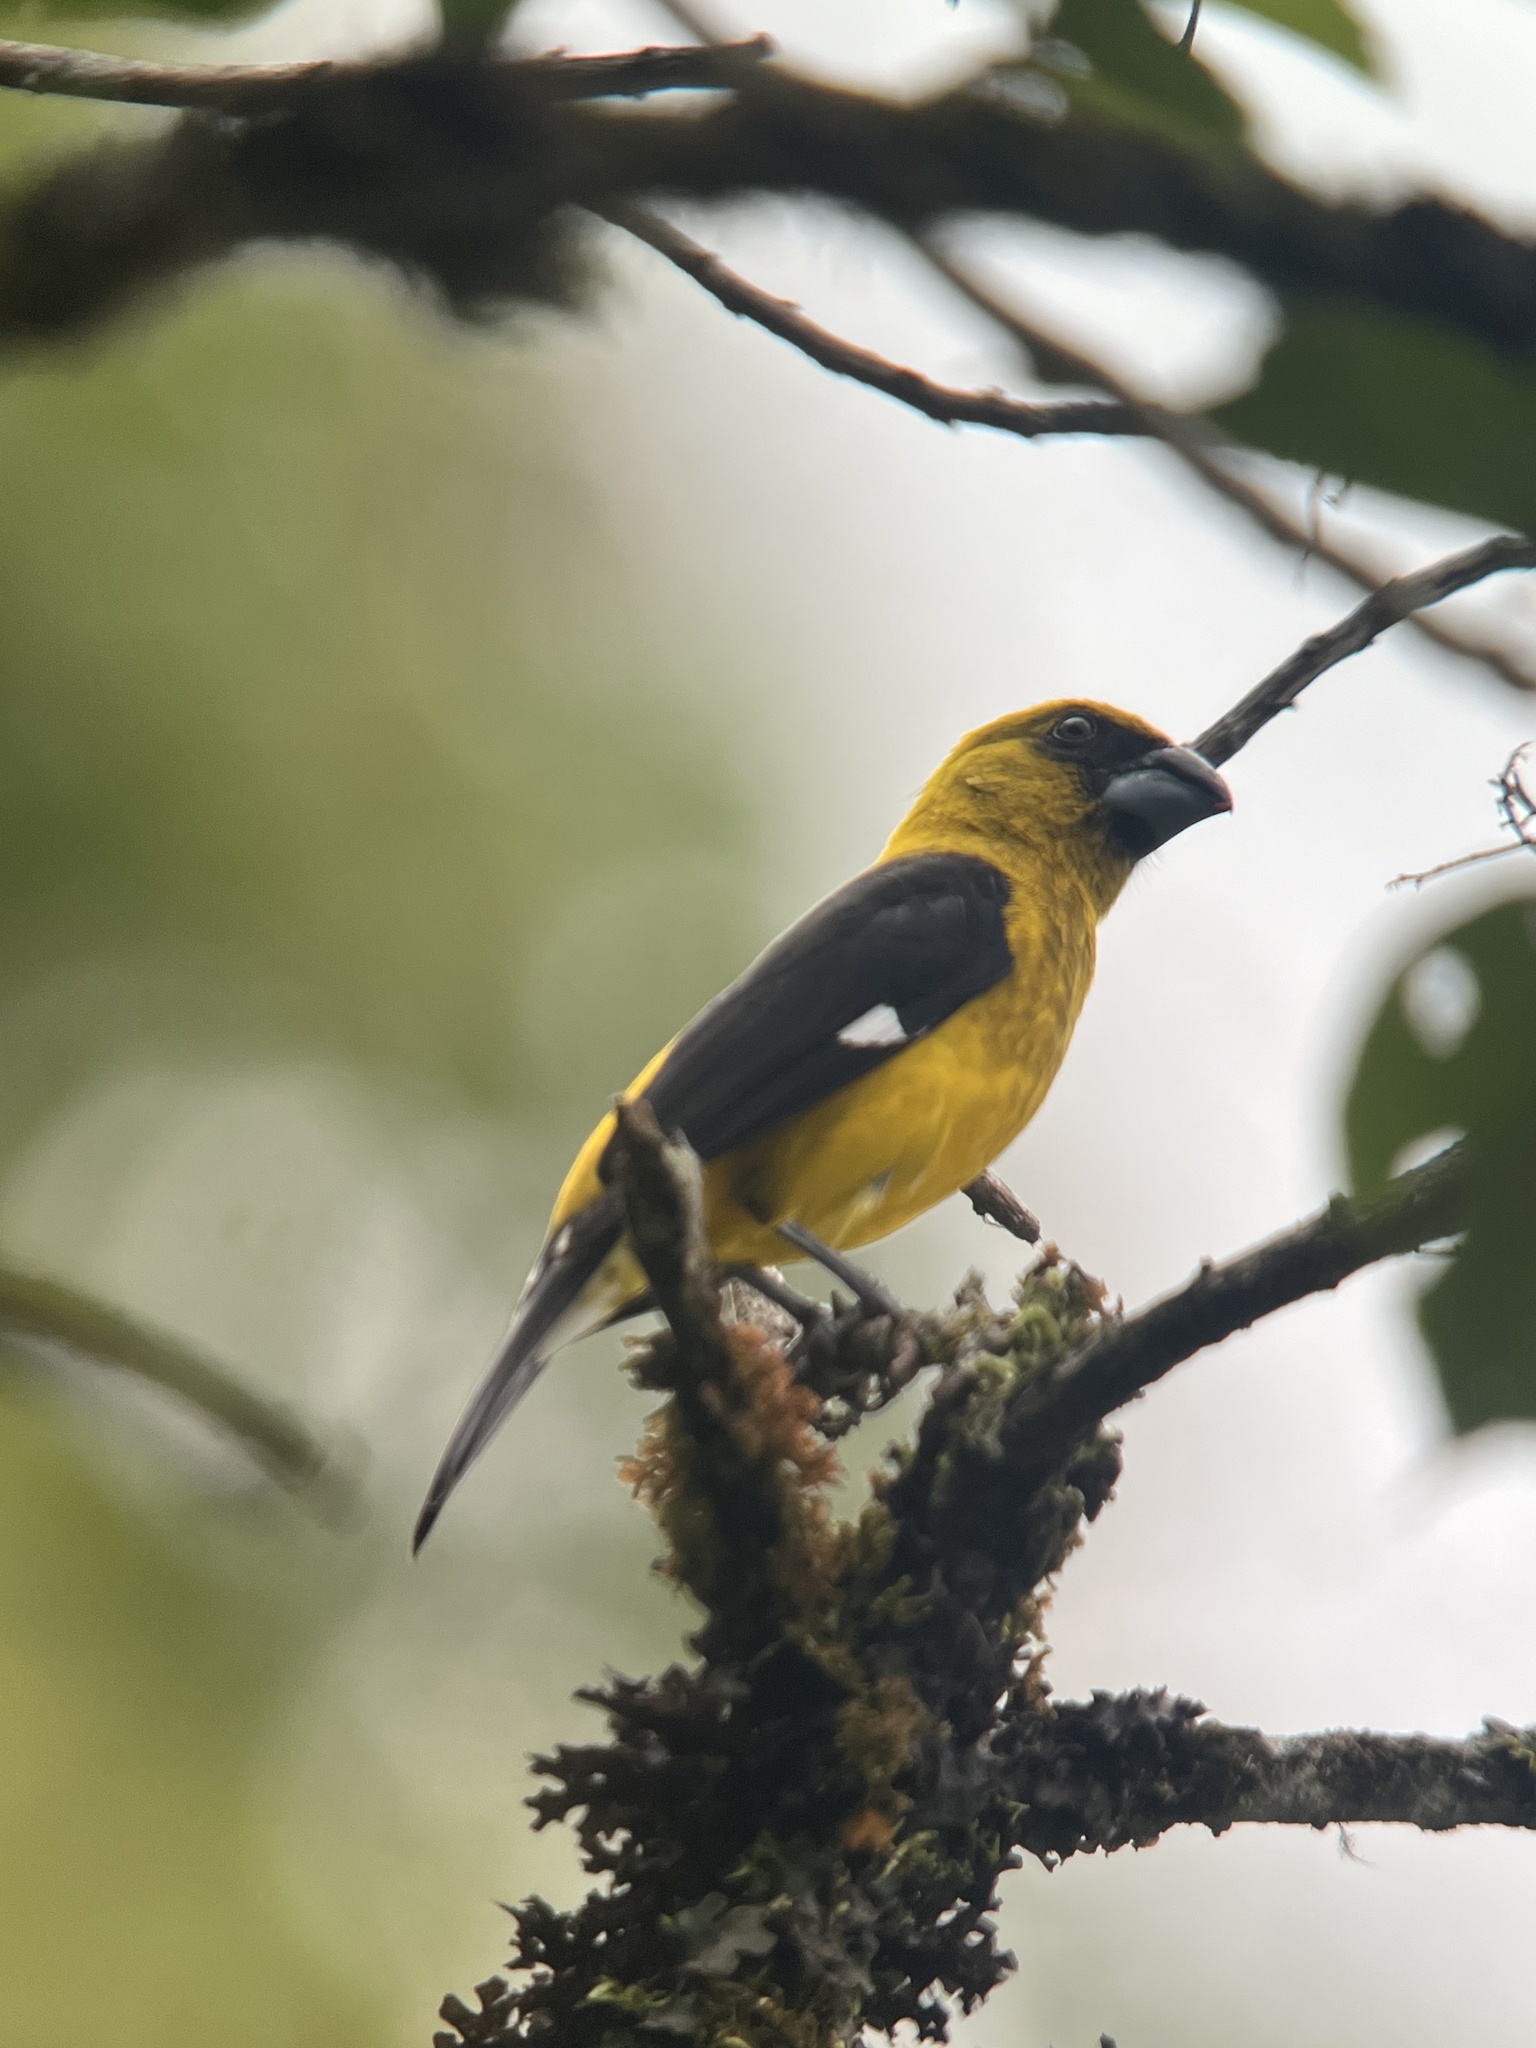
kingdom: Animalia
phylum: Chordata
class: Aves
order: Passeriformes
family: Cardinalidae
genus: Pheucticus
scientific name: Pheucticus tibialis
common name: Black-thighed grosbeak
